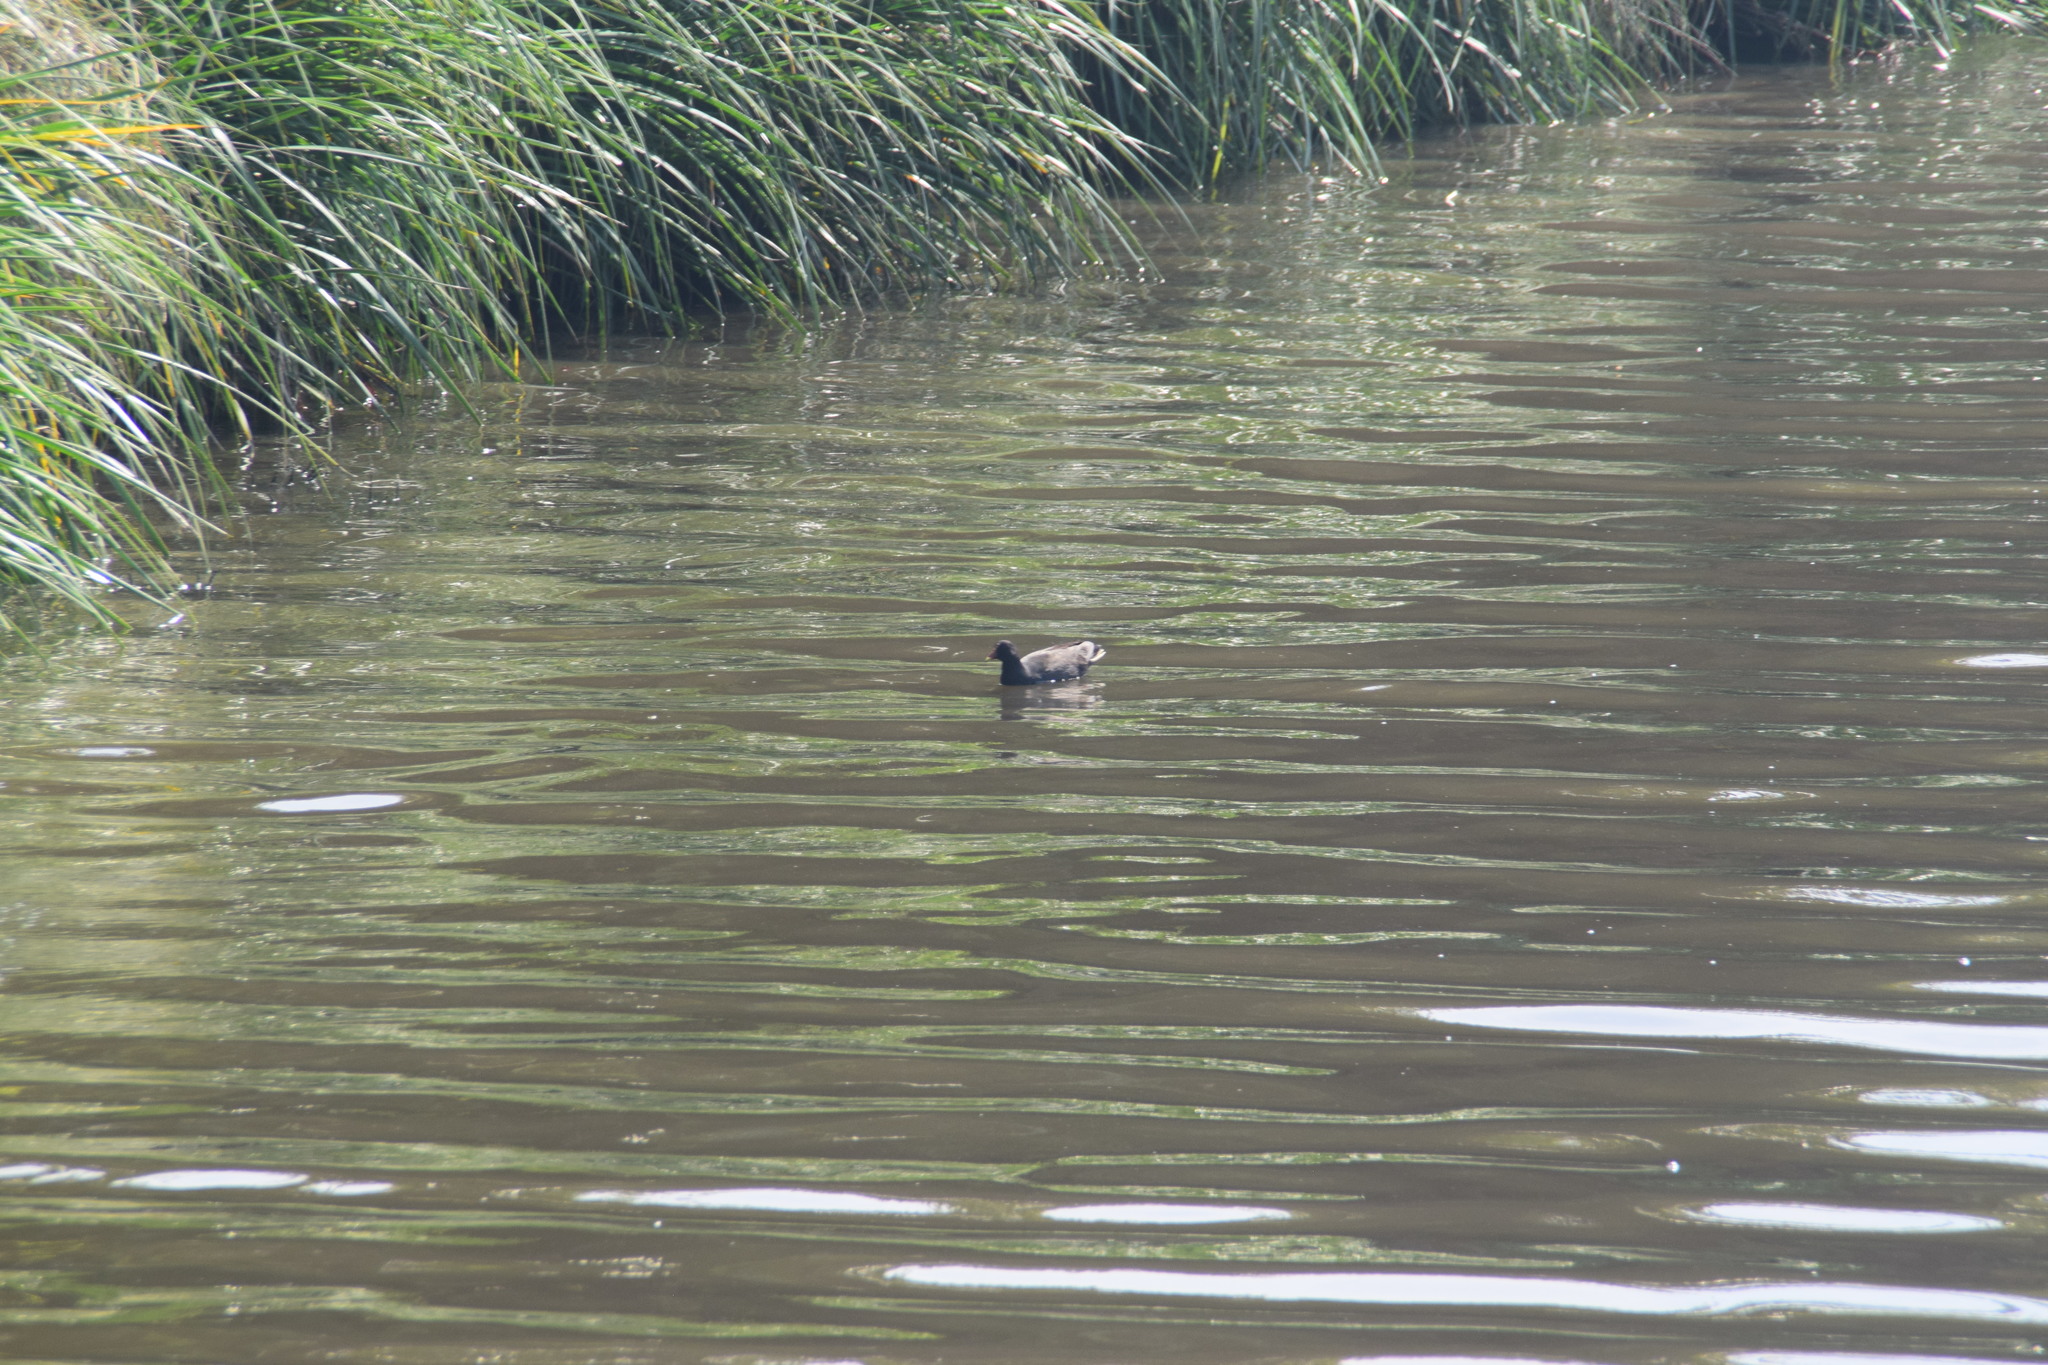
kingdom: Animalia
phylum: Chordata
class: Aves
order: Gruiformes
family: Rallidae
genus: Gallinula
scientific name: Gallinula tenebrosa
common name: Dusky moorhen
